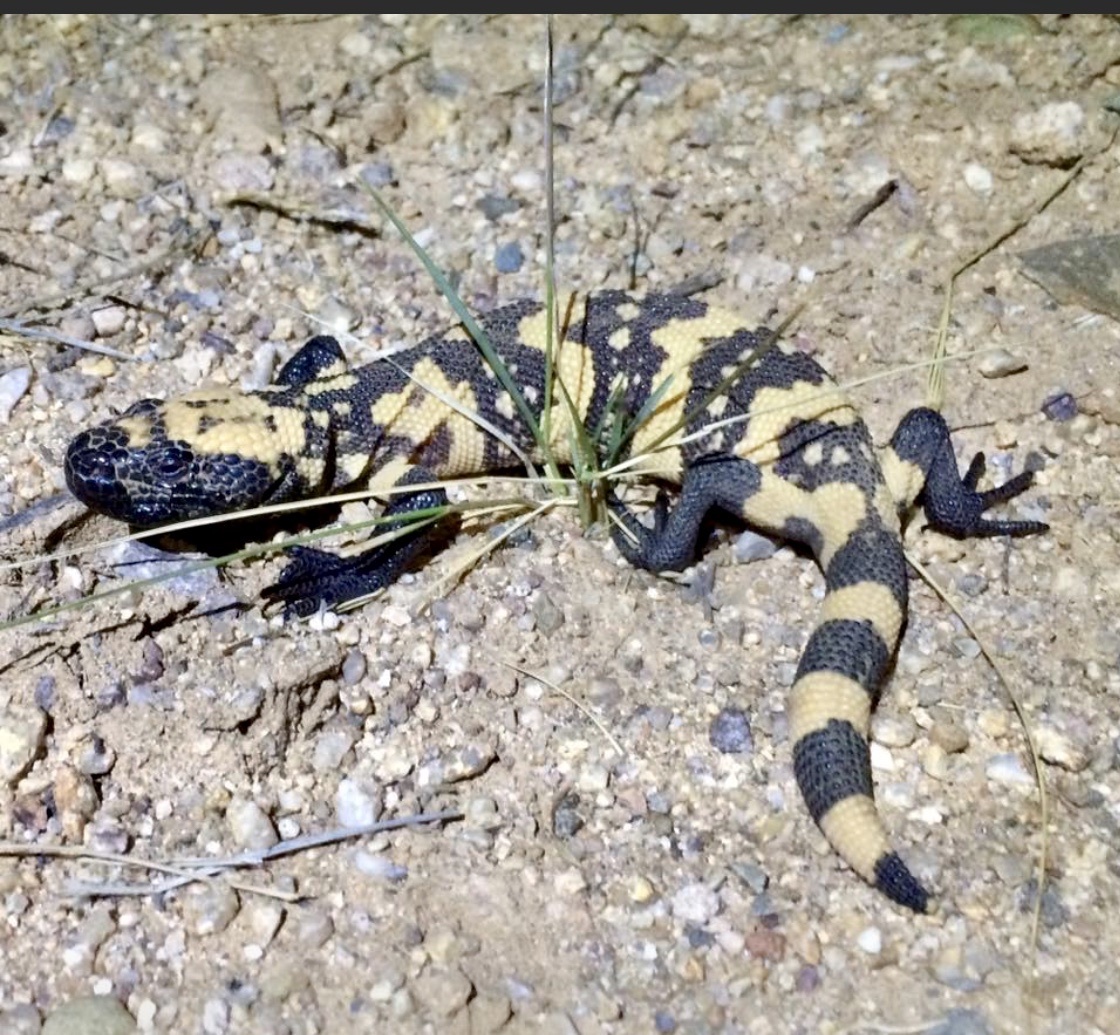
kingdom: Animalia
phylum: Chordata
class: Squamata
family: Helodermatidae
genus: Heloderma
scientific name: Heloderma suspectum
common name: Gila monster
